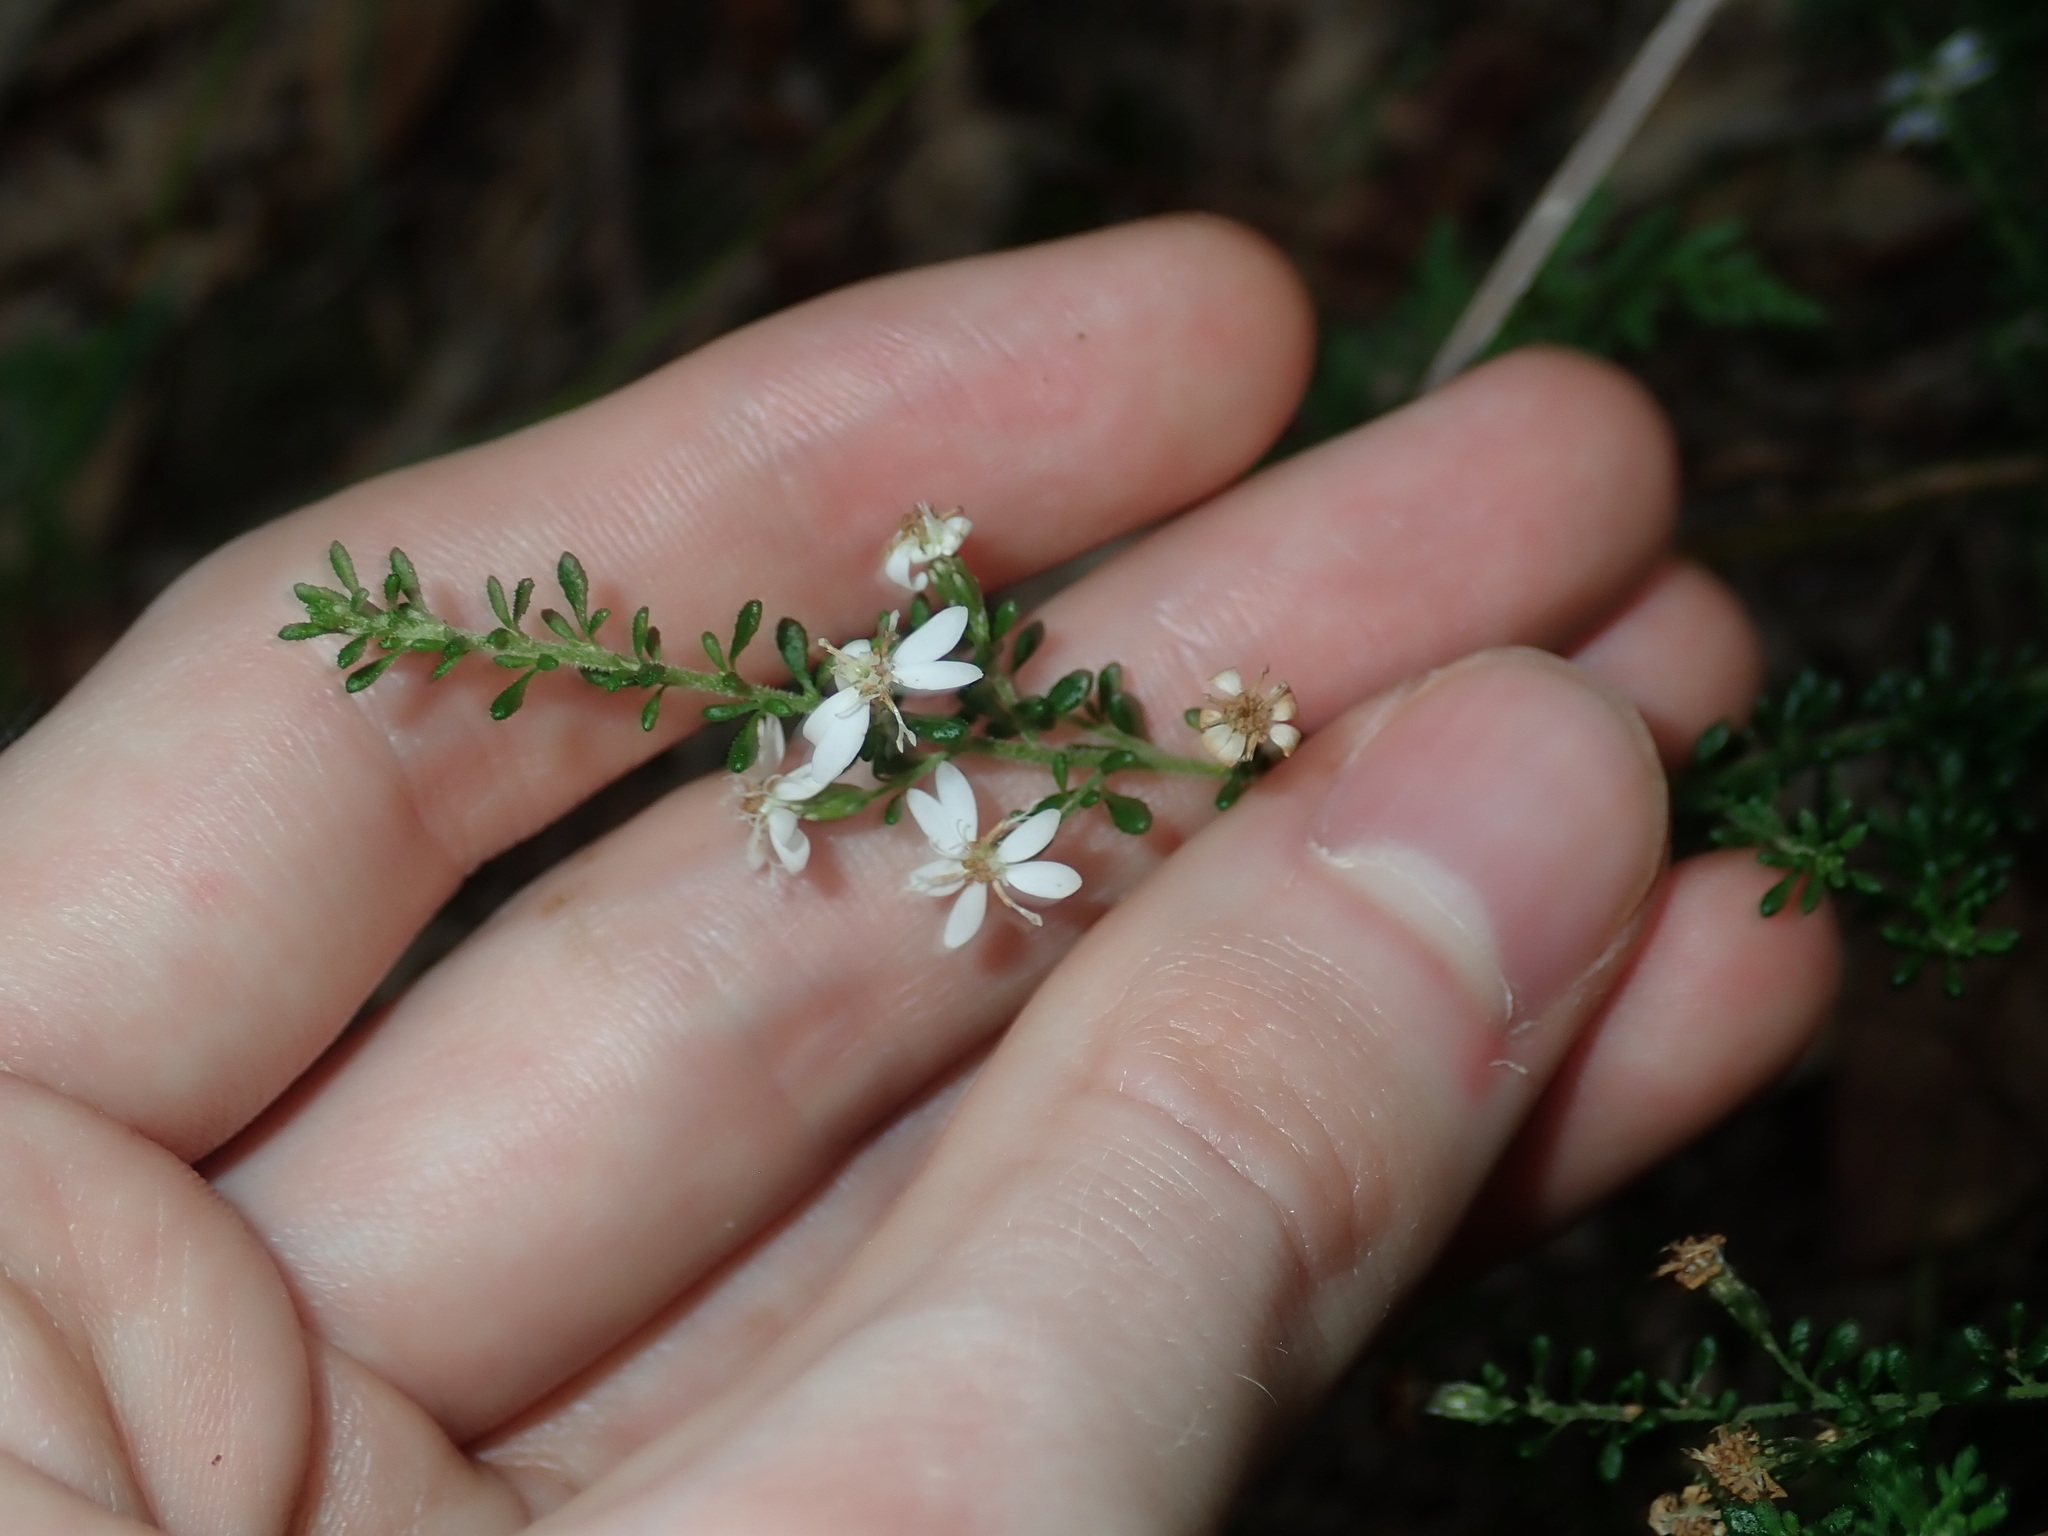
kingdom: Plantae
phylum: Tracheophyta
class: Magnoliopsida
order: Asterales
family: Asteraceae
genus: Olearia
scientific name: Olearia microphylla
